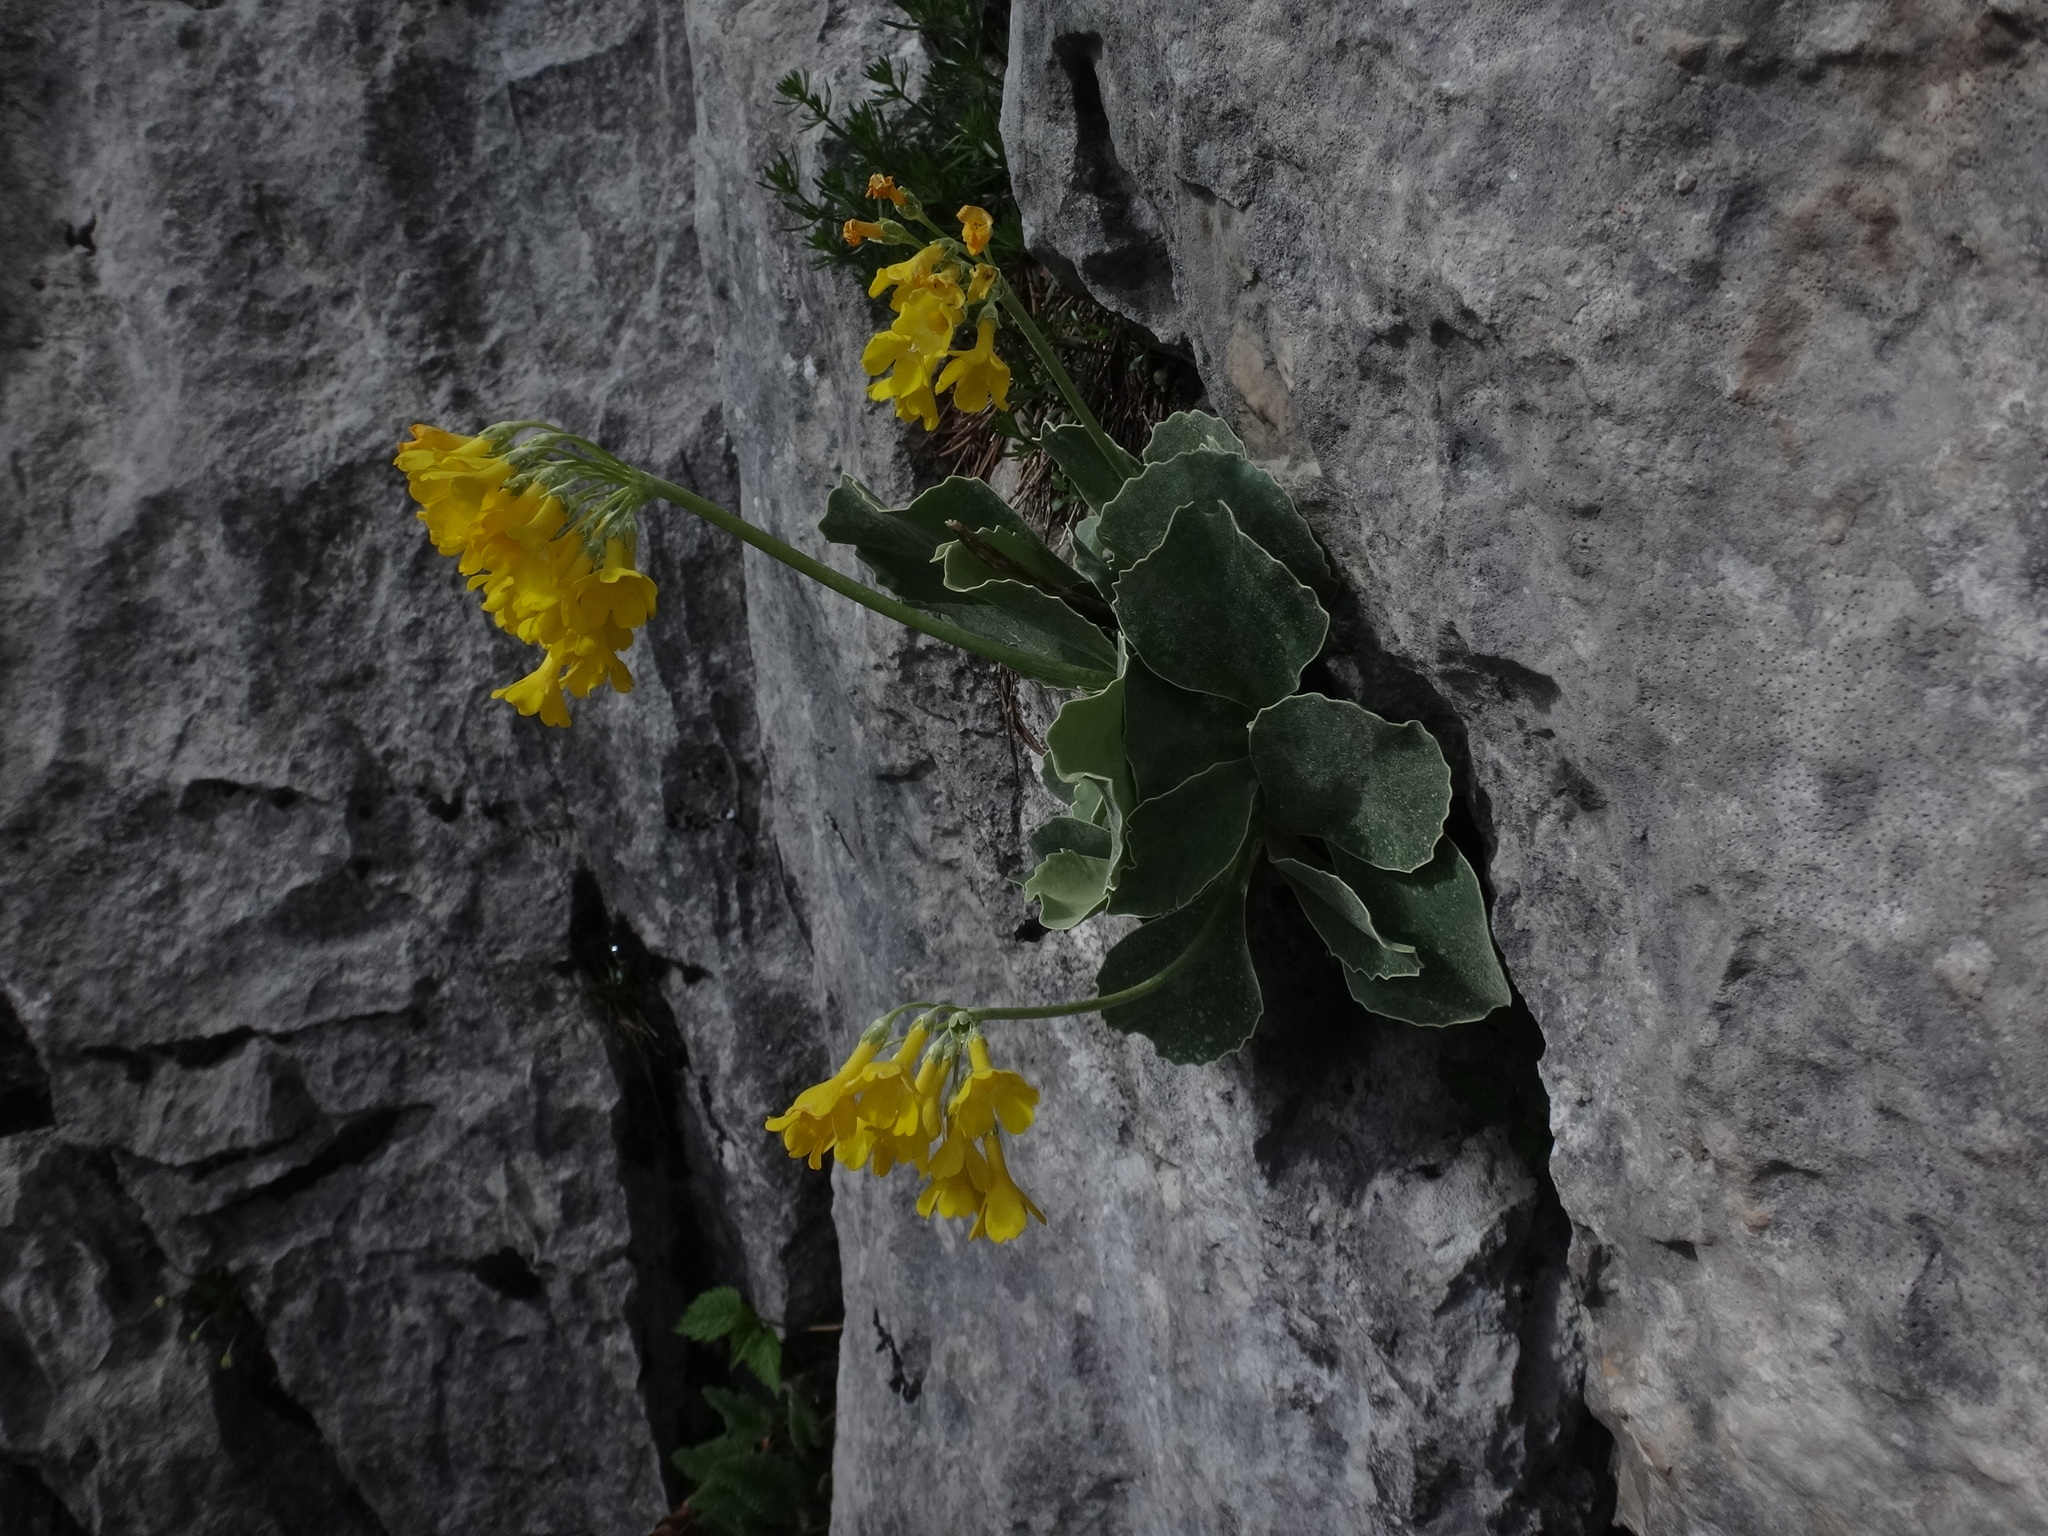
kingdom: Plantae
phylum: Tracheophyta
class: Magnoliopsida
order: Ericales
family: Primulaceae
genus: Primula
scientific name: Primula auricula
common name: Auricula
